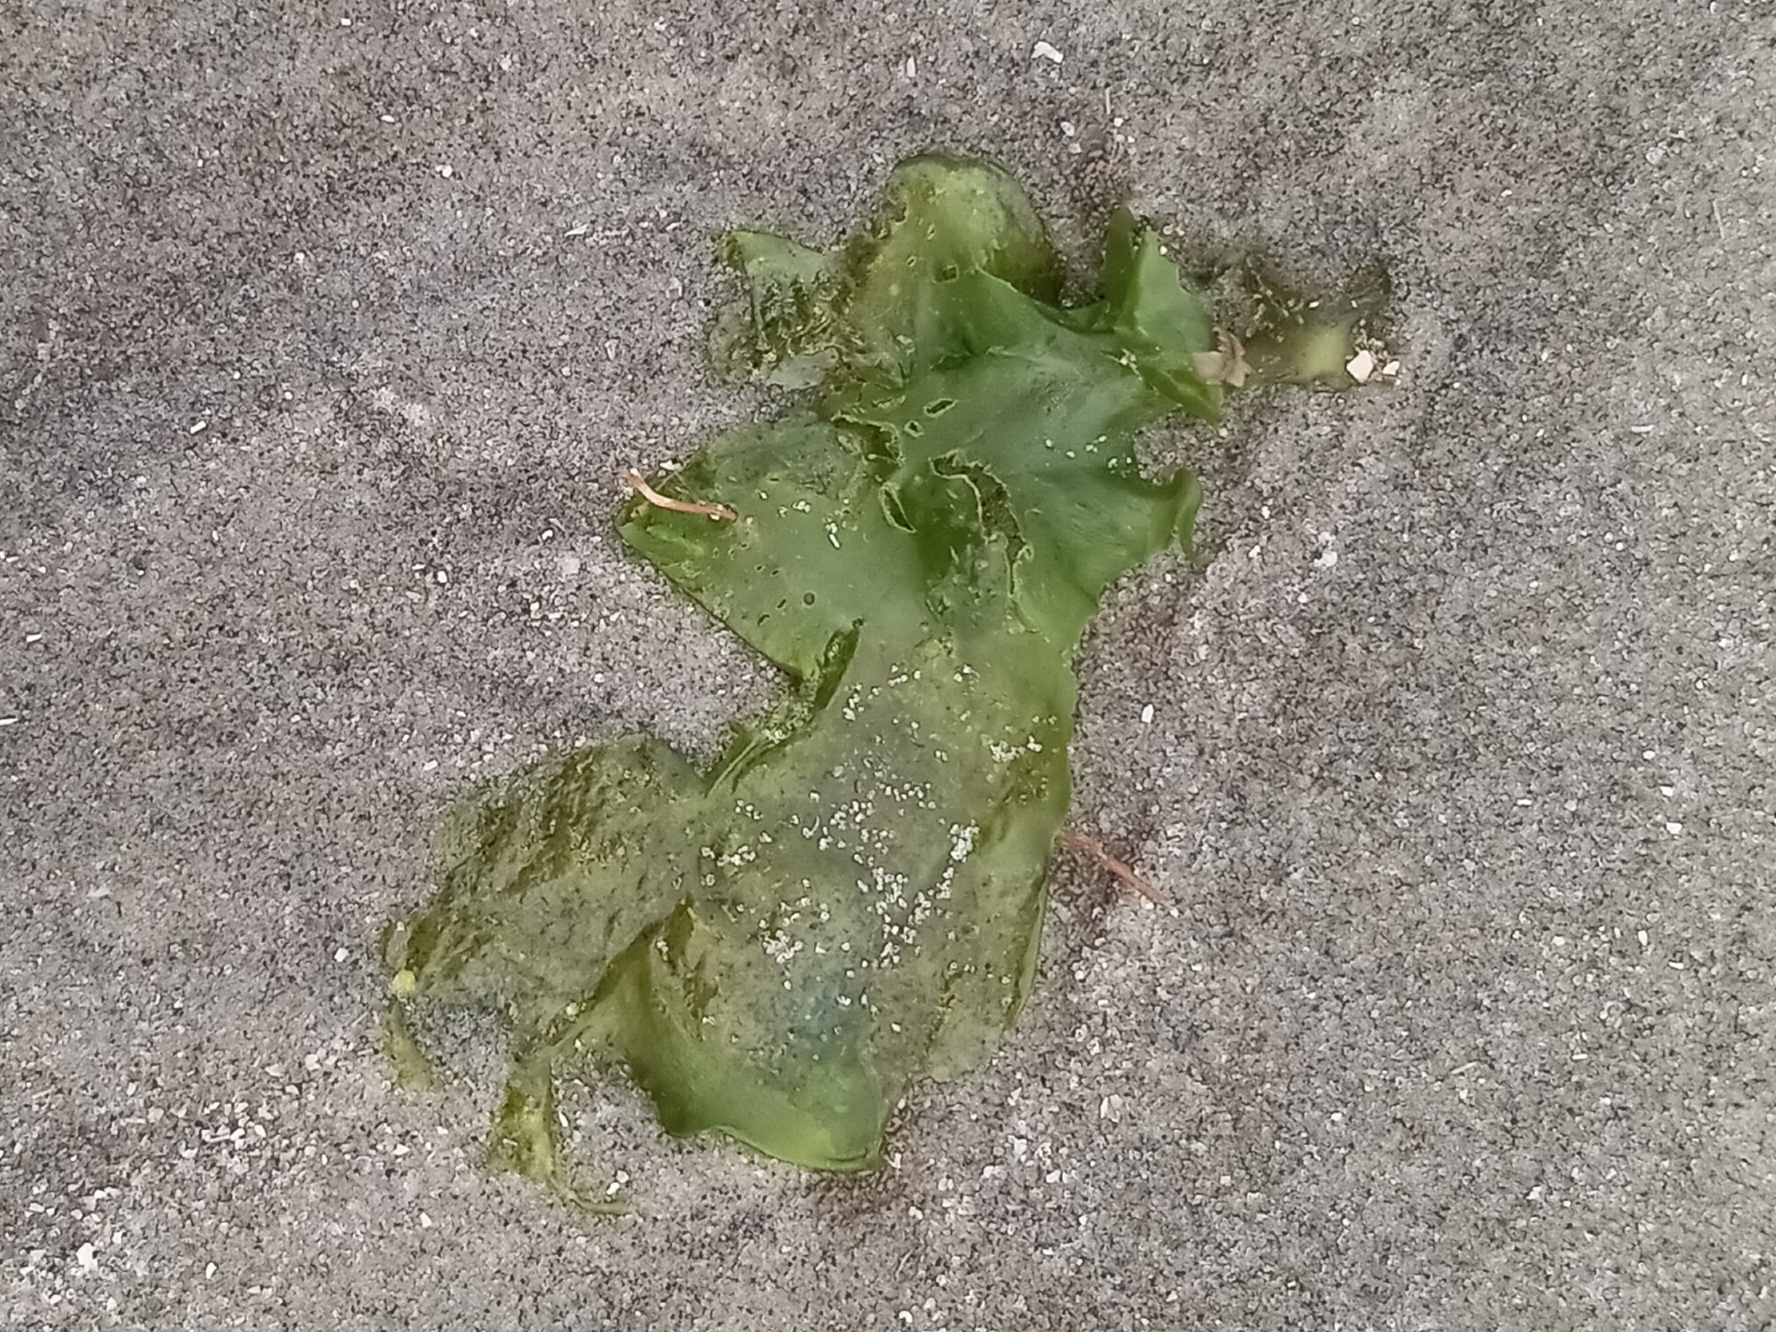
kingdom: Plantae
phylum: Chlorophyta
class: Ulvophyceae
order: Ulvales
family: Ulvaceae
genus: Ulva
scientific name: Ulva lactuca
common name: Sea lettuce
